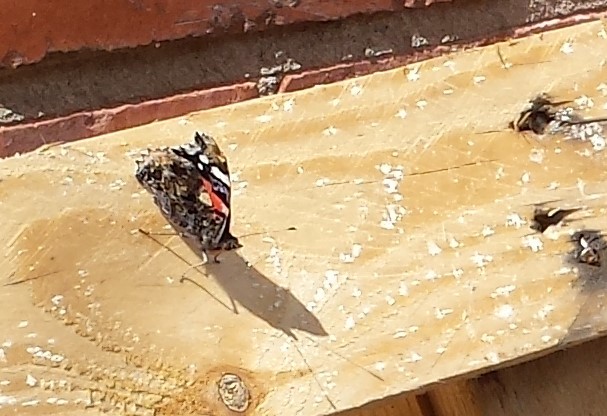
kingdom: Animalia
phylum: Arthropoda
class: Insecta
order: Lepidoptera
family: Nymphalidae
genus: Vanessa
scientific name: Vanessa atalanta
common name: Red admiral
